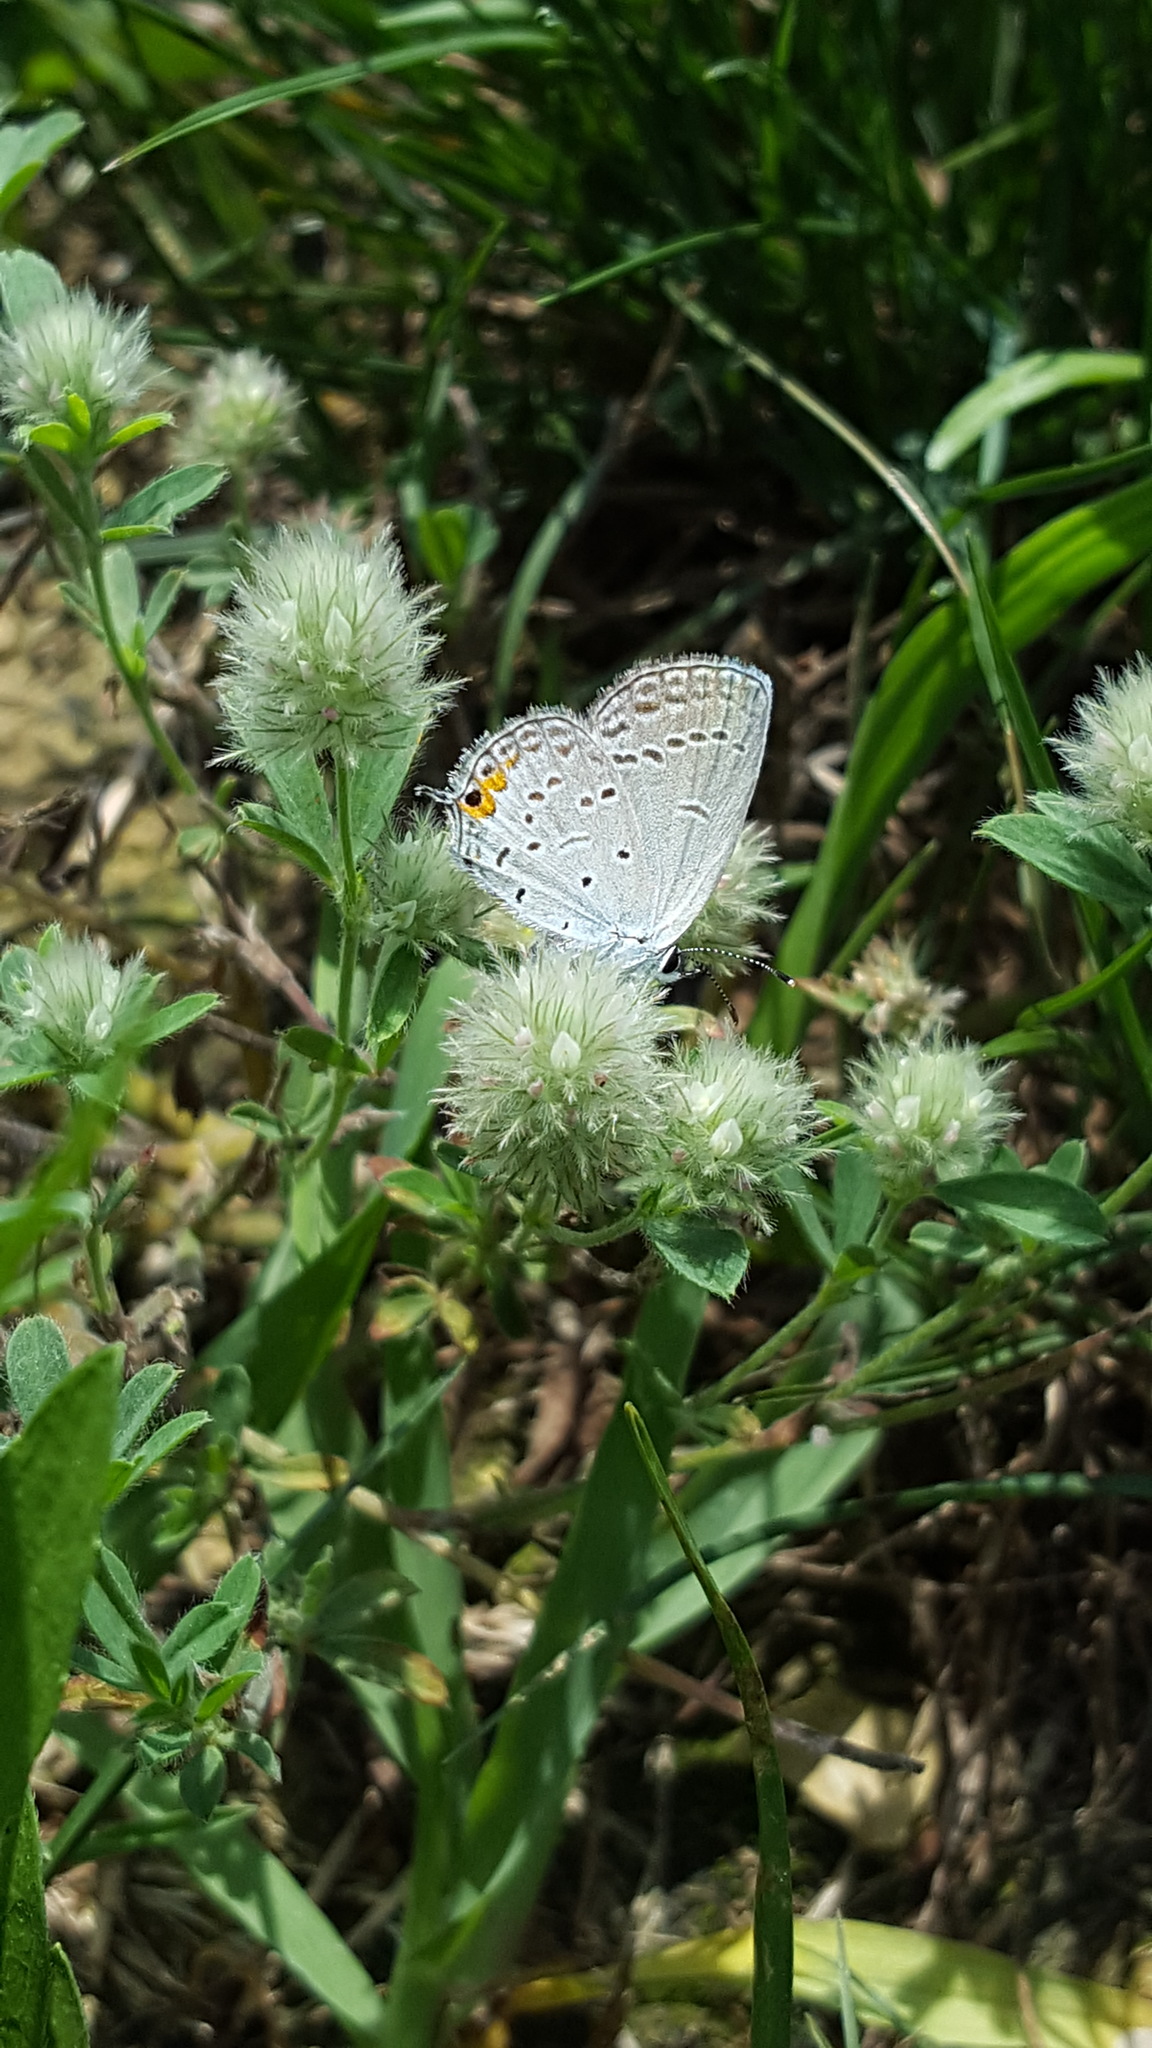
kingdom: Animalia
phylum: Arthropoda
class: Insecta
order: Lepidoptera
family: Lycaenidae
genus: Elkalyce
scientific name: Elkalyce comyntas
